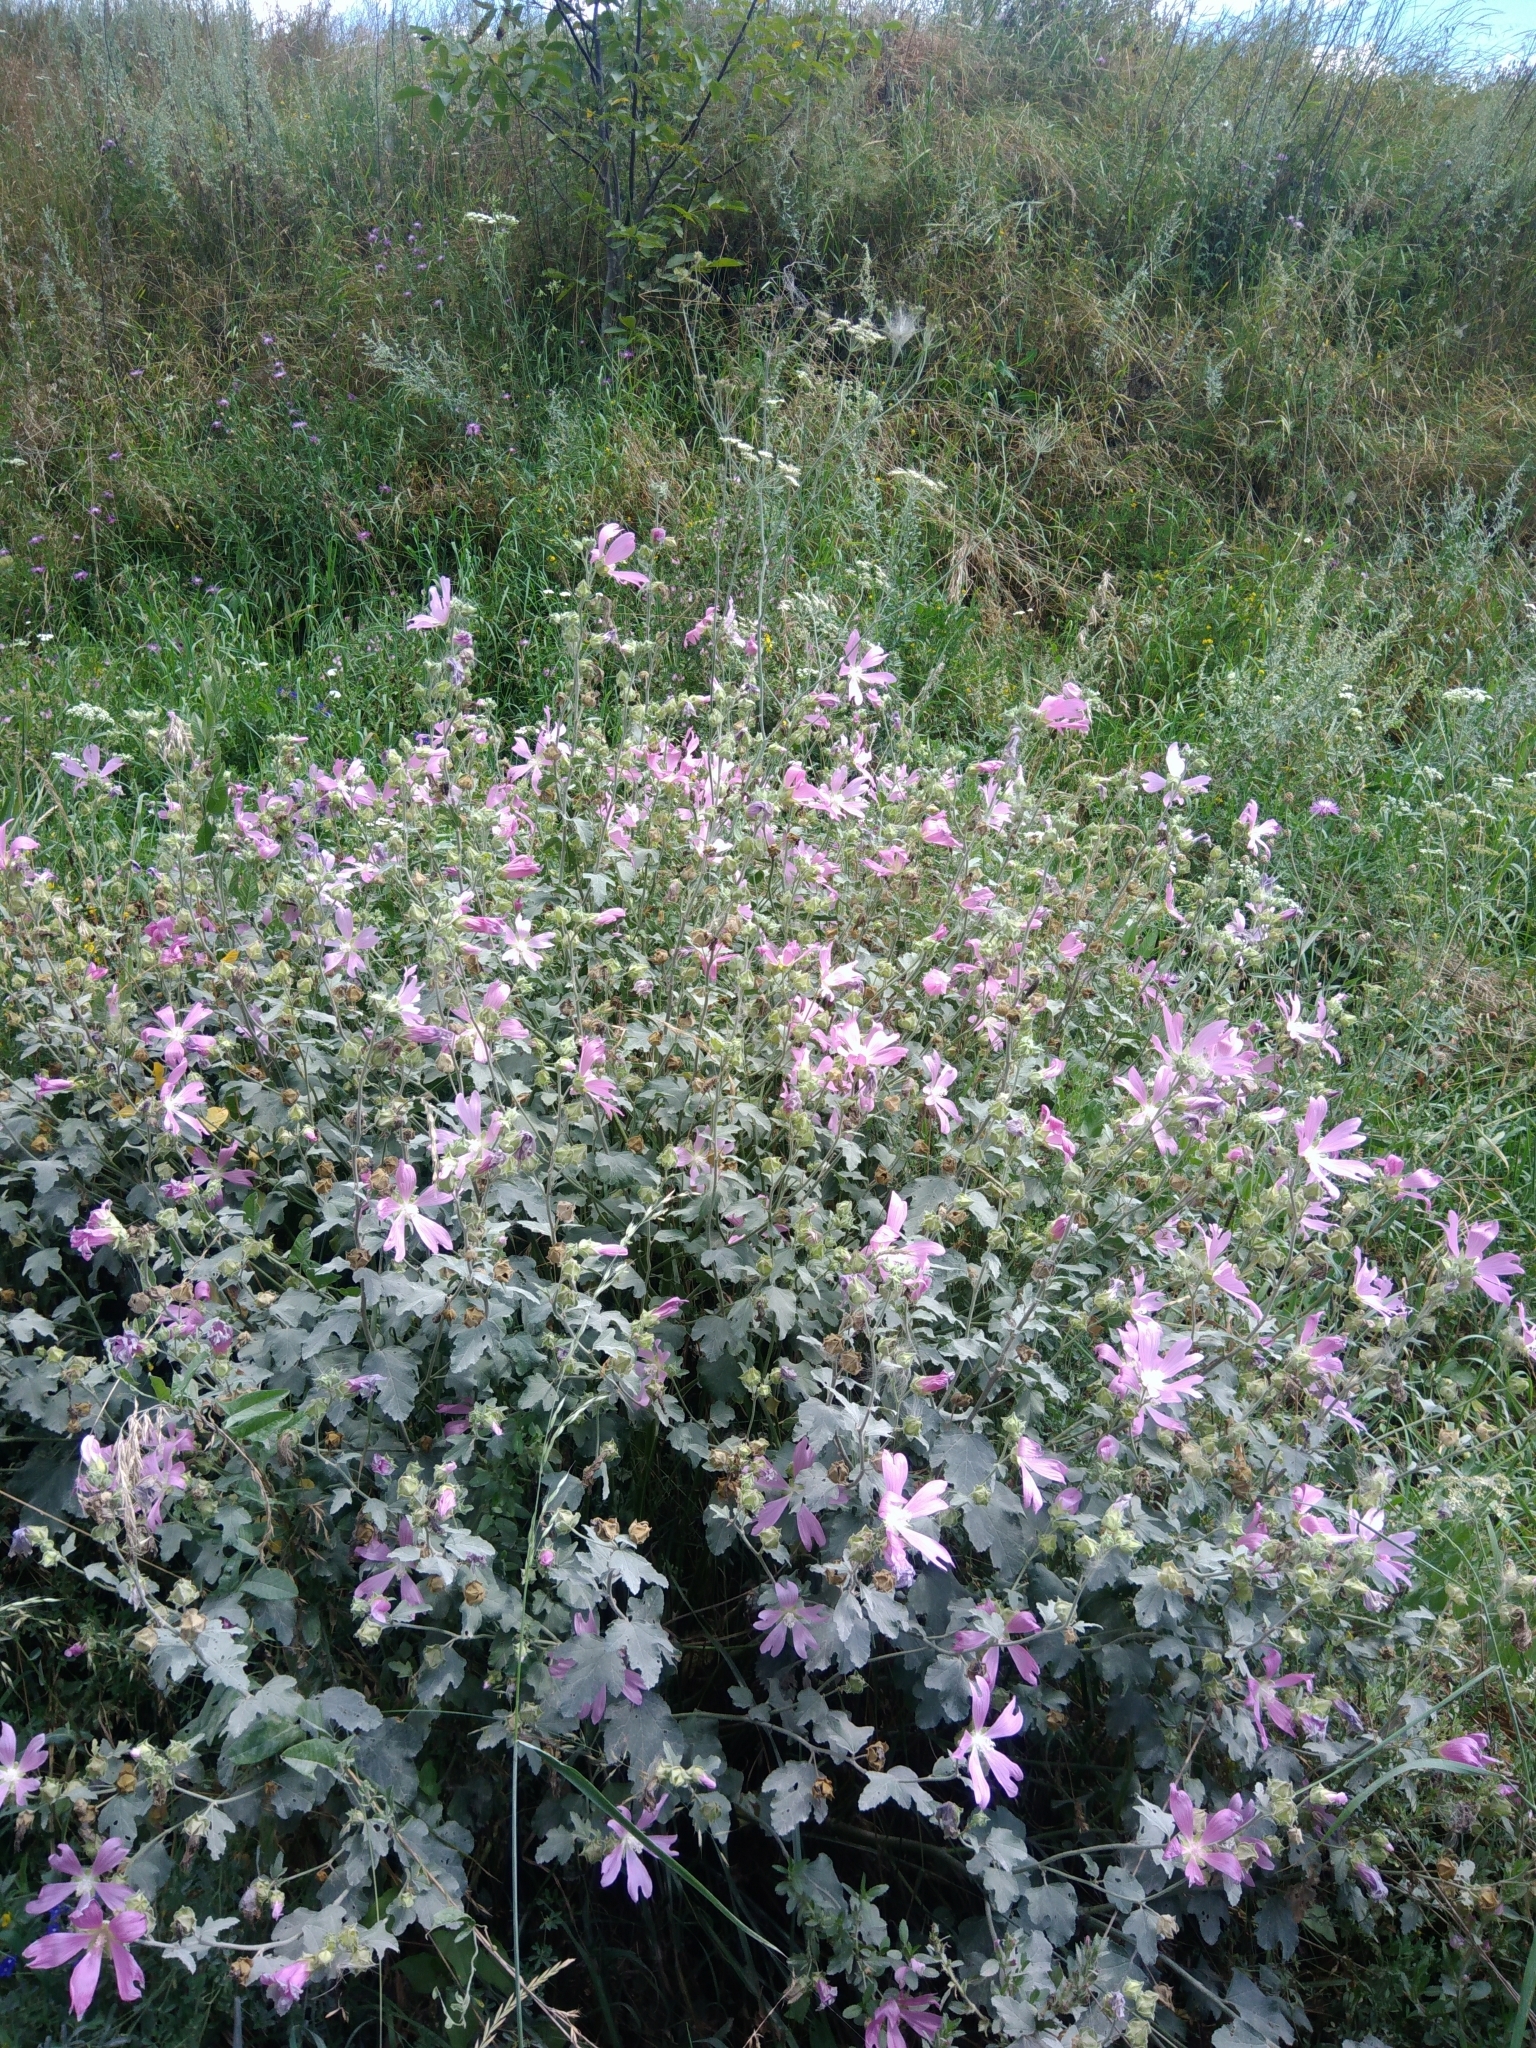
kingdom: Plantae
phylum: Tracheophyta
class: Magnoliopsida
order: Malvales
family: Malvaceae
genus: Malva
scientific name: Malva thuringiaca
